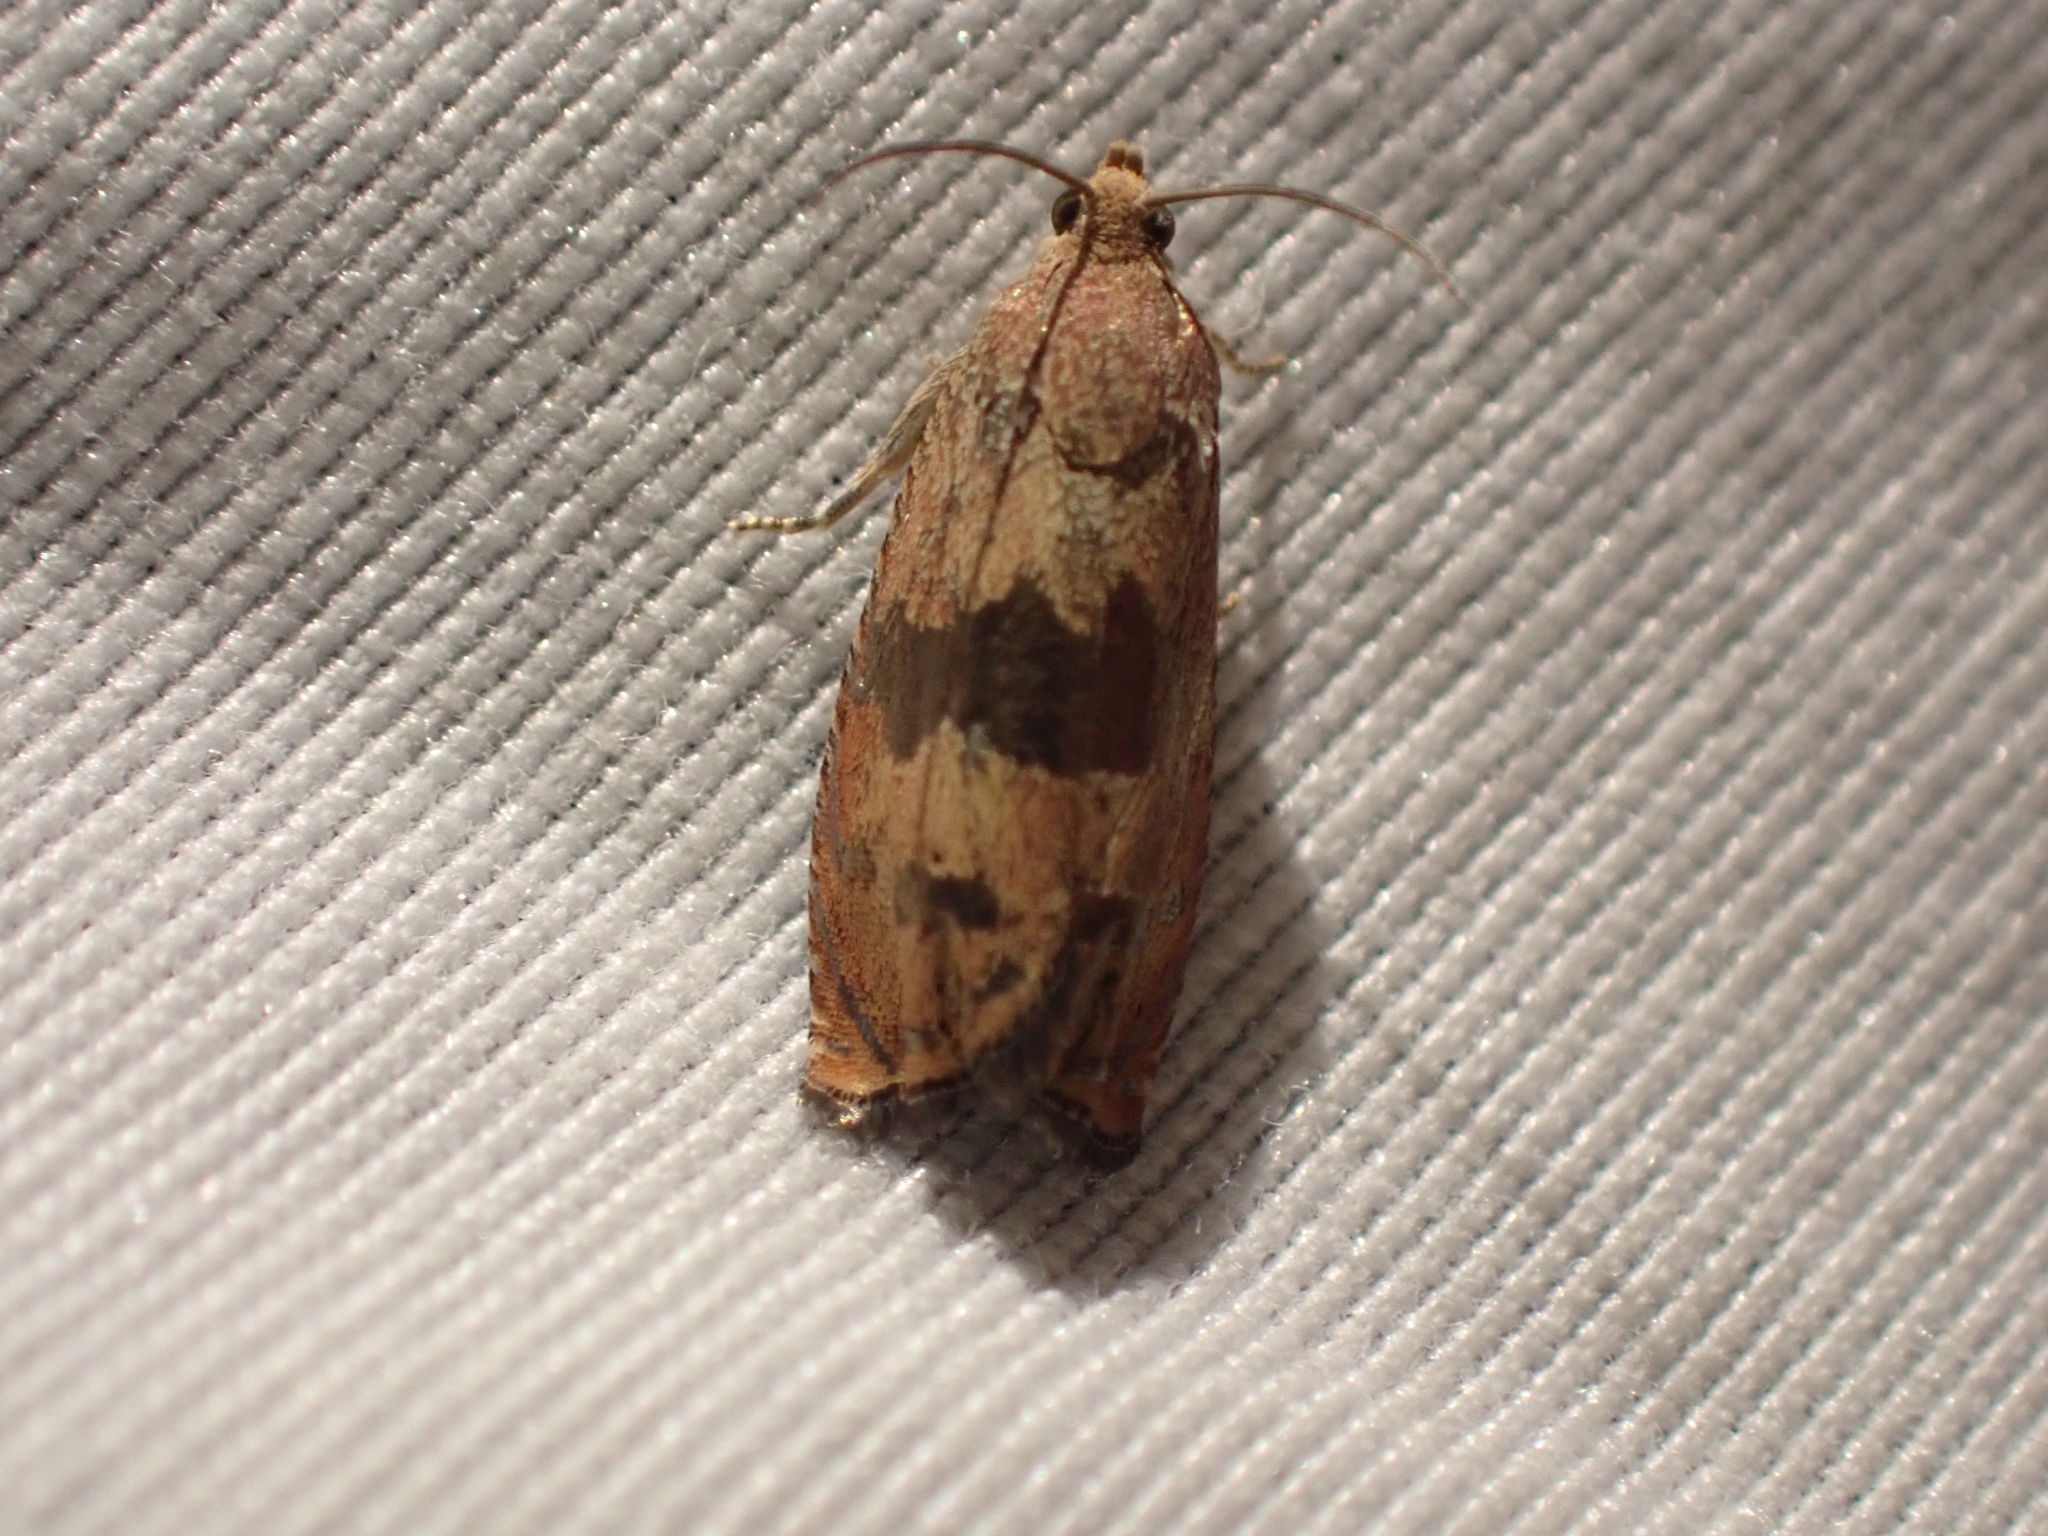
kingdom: Animalia
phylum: Arthropoda
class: Insecta
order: Lepidoptera
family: Tortricidae
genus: Cydia
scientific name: Cydia latiferreana
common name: Filbertworm moth
